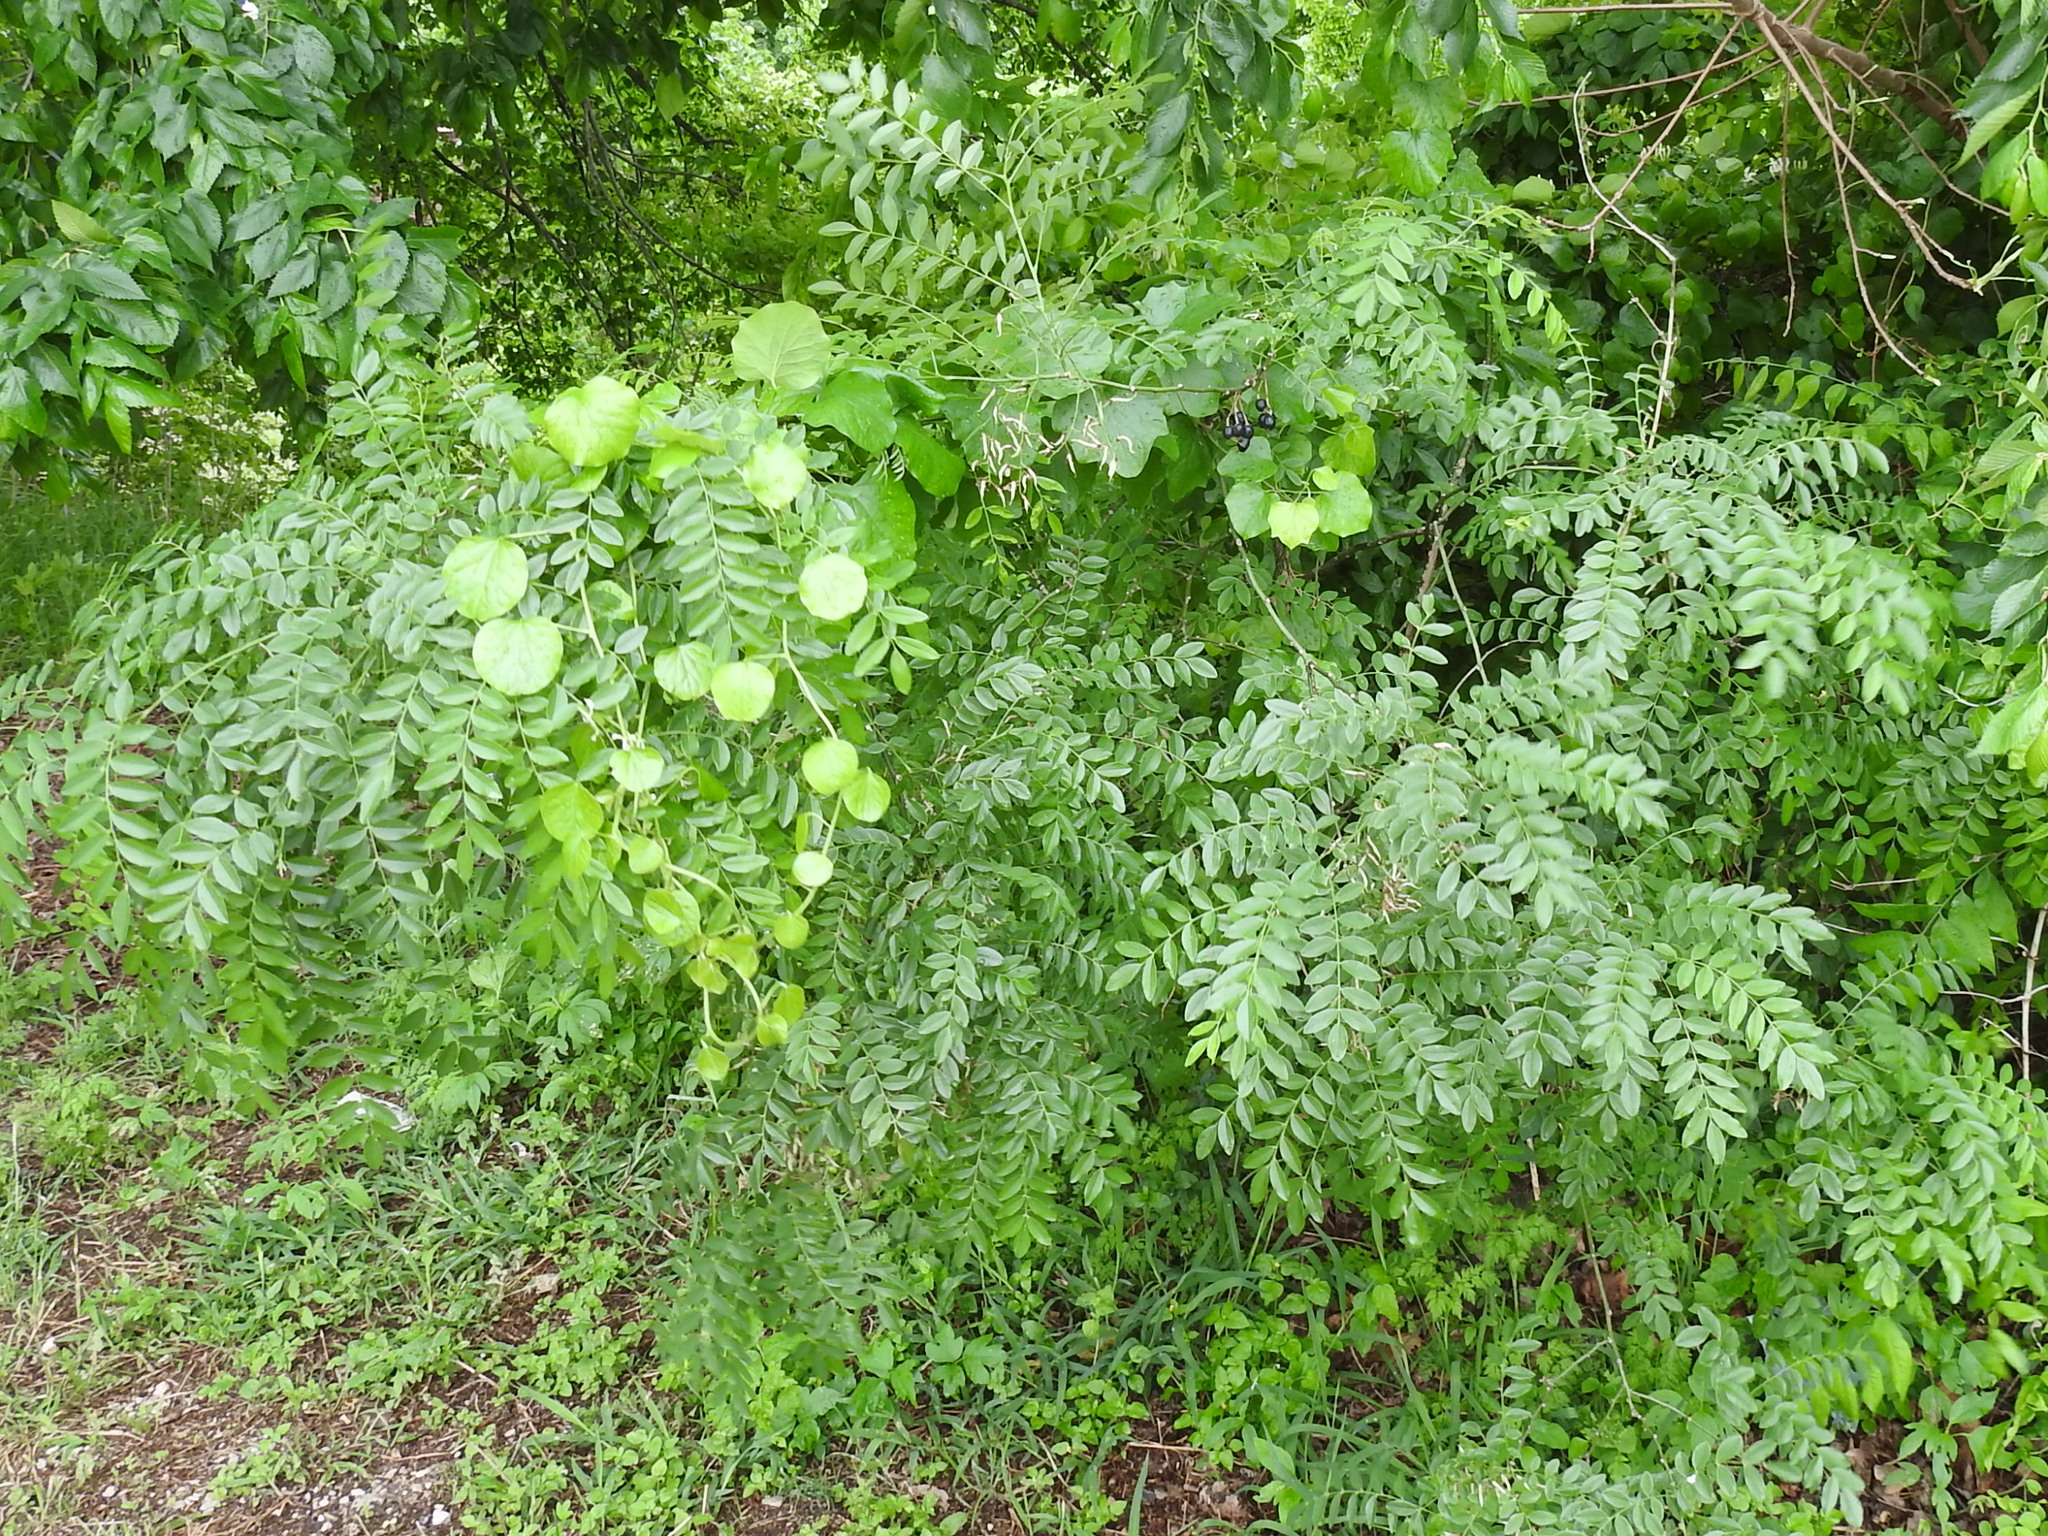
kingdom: Plantae
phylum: Tracheophyta
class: Magnoliopsida
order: Fabales
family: Fabaceae
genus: Styphnolobium
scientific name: Styphnolobium affine
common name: Texas sophora
